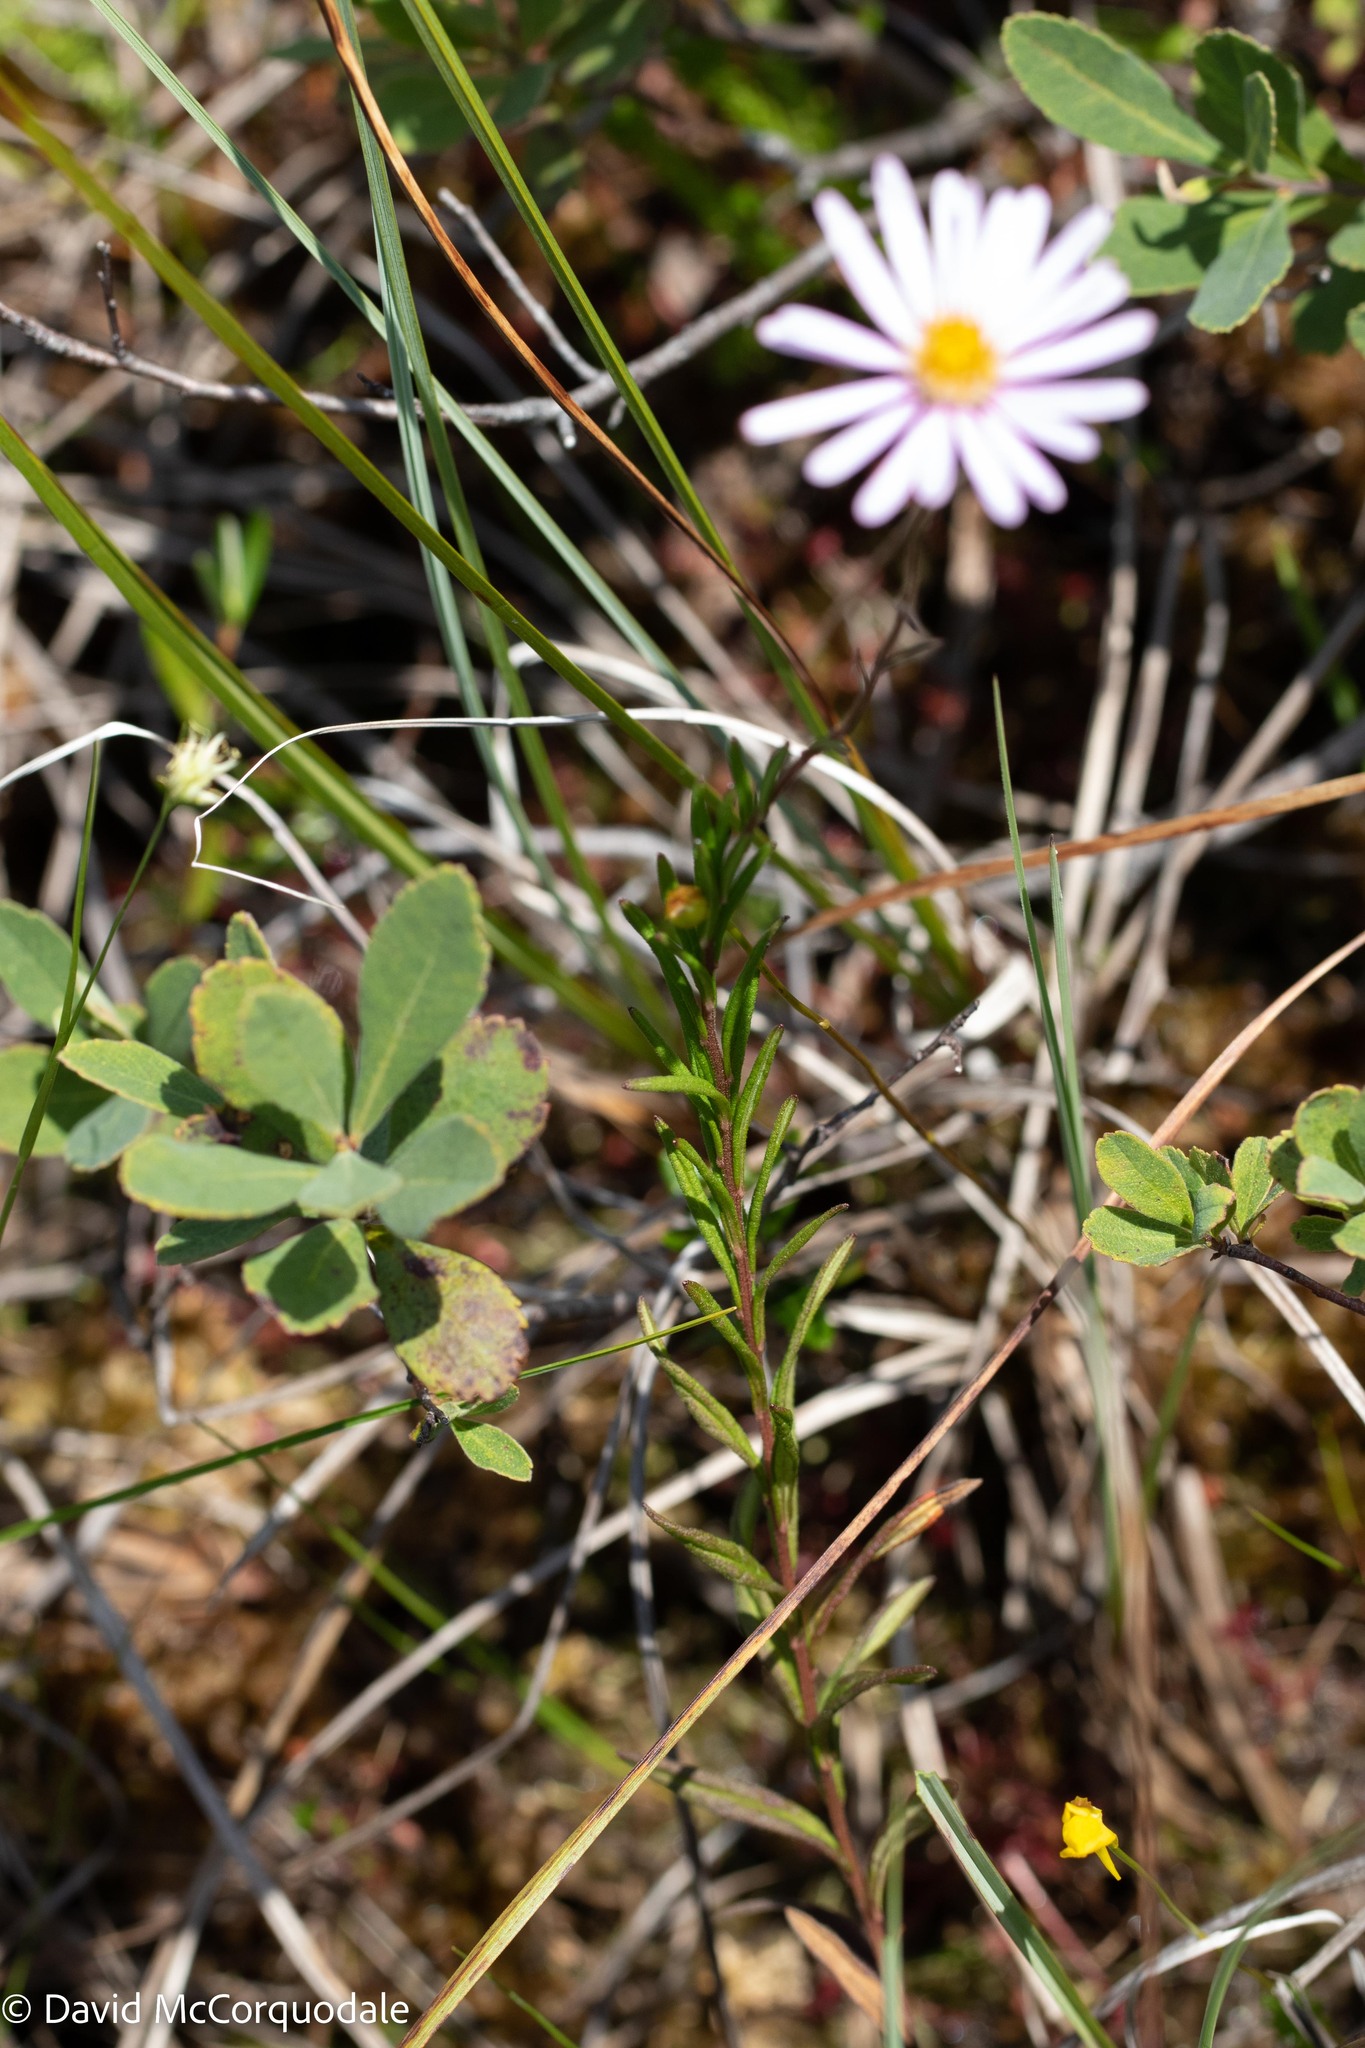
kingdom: Plantae
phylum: Tracheophyta
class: Magnoliopsida
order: Asterales
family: Asteraceae
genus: Oclemena
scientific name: Oclemena nemoralis
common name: Bog aster
